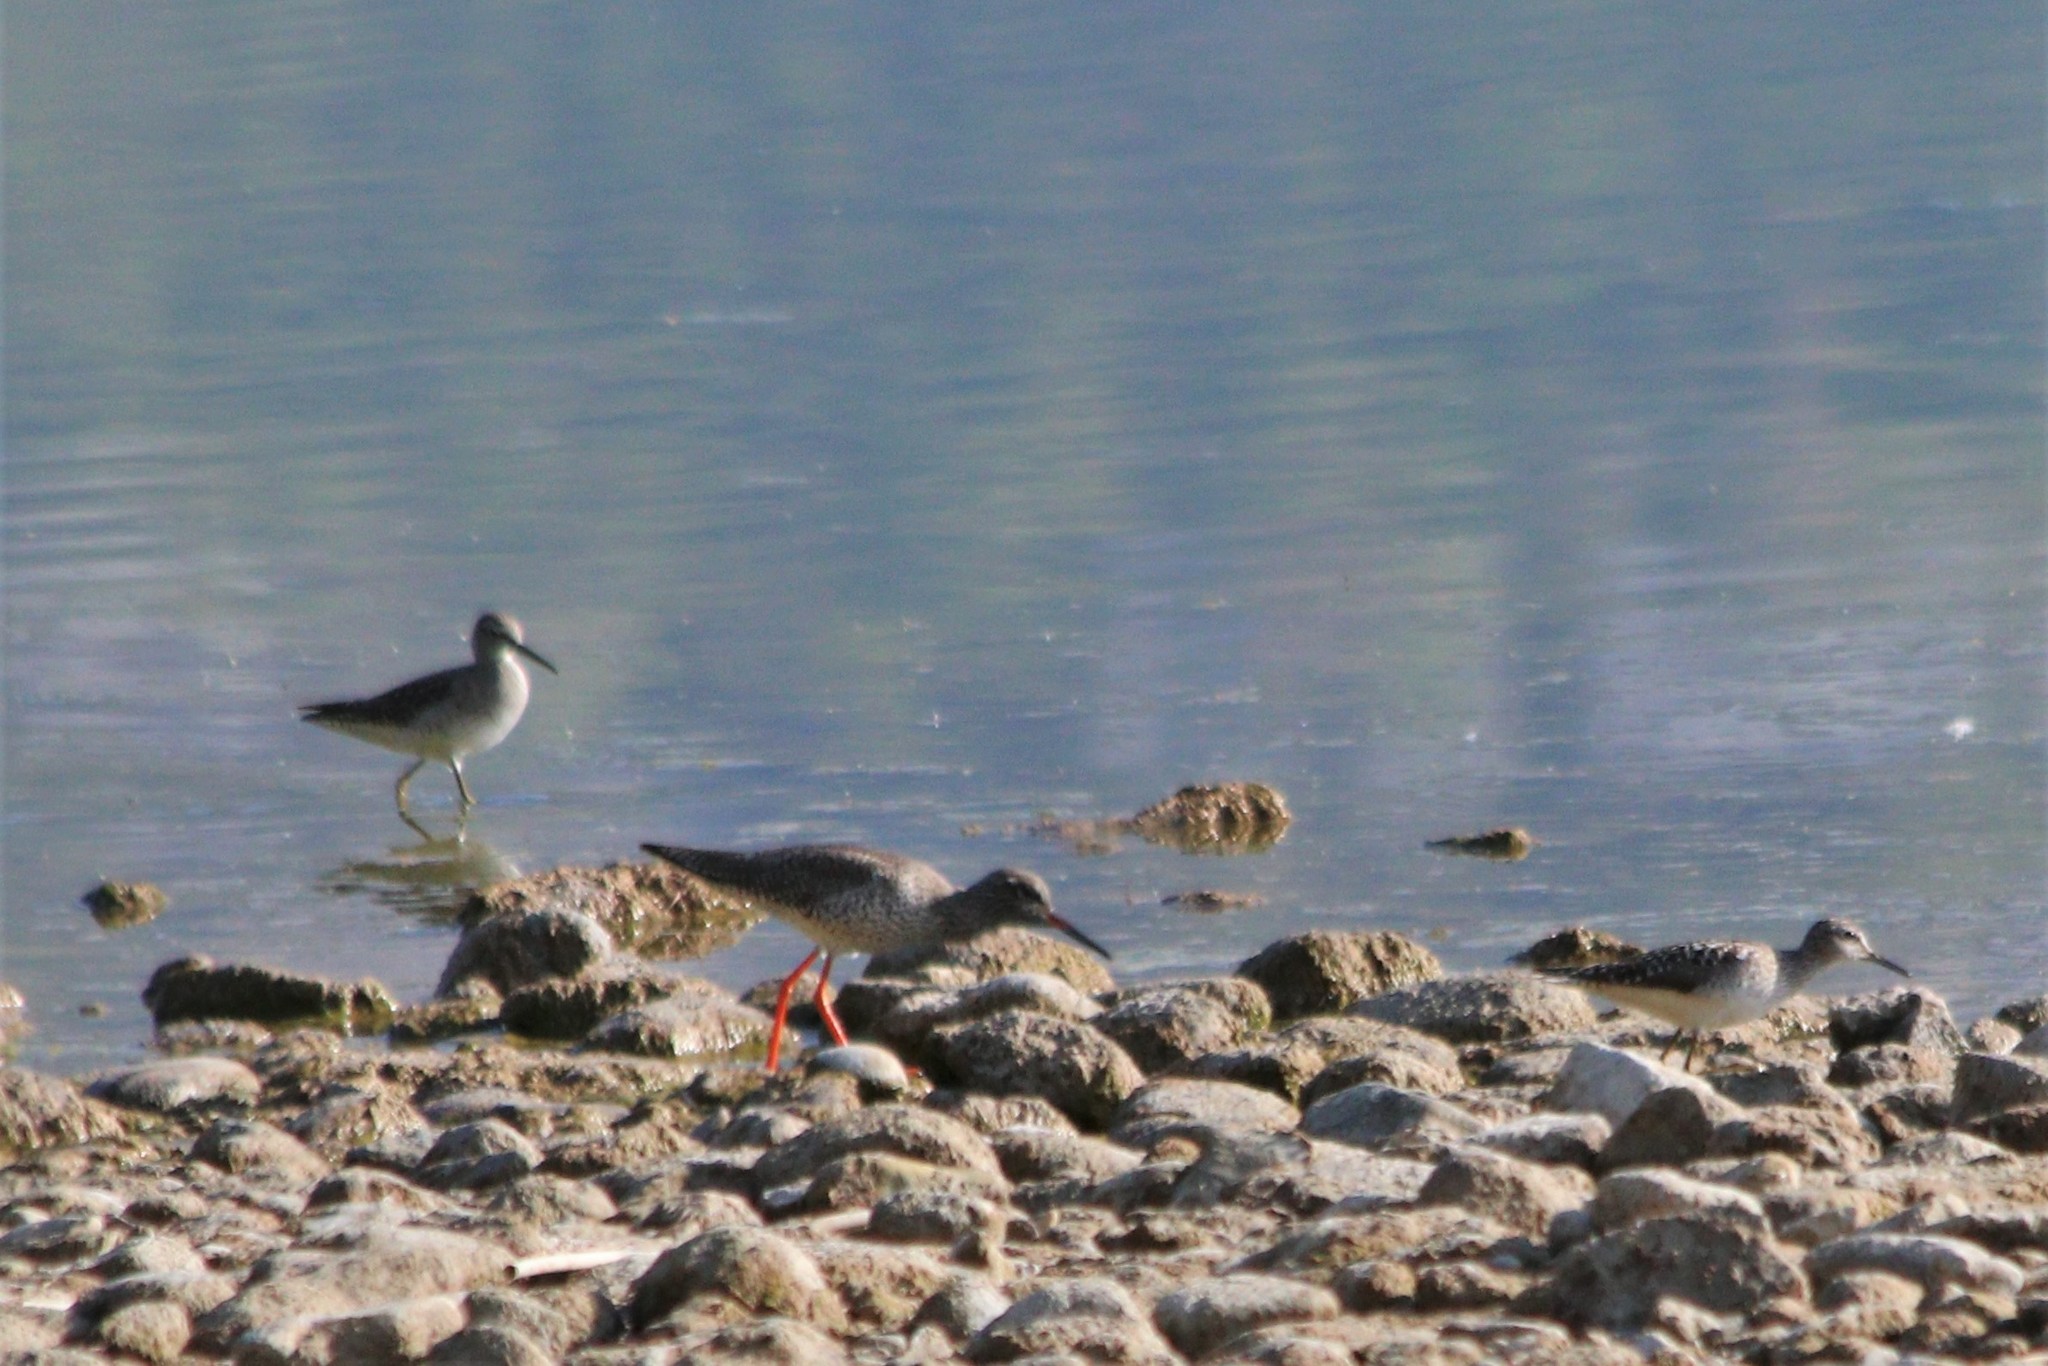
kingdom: Animalia
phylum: Chordata
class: Aves
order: Charadriiformes
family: Scolopacidae
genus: Tringa
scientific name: Tringa totanus
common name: Common redshank
